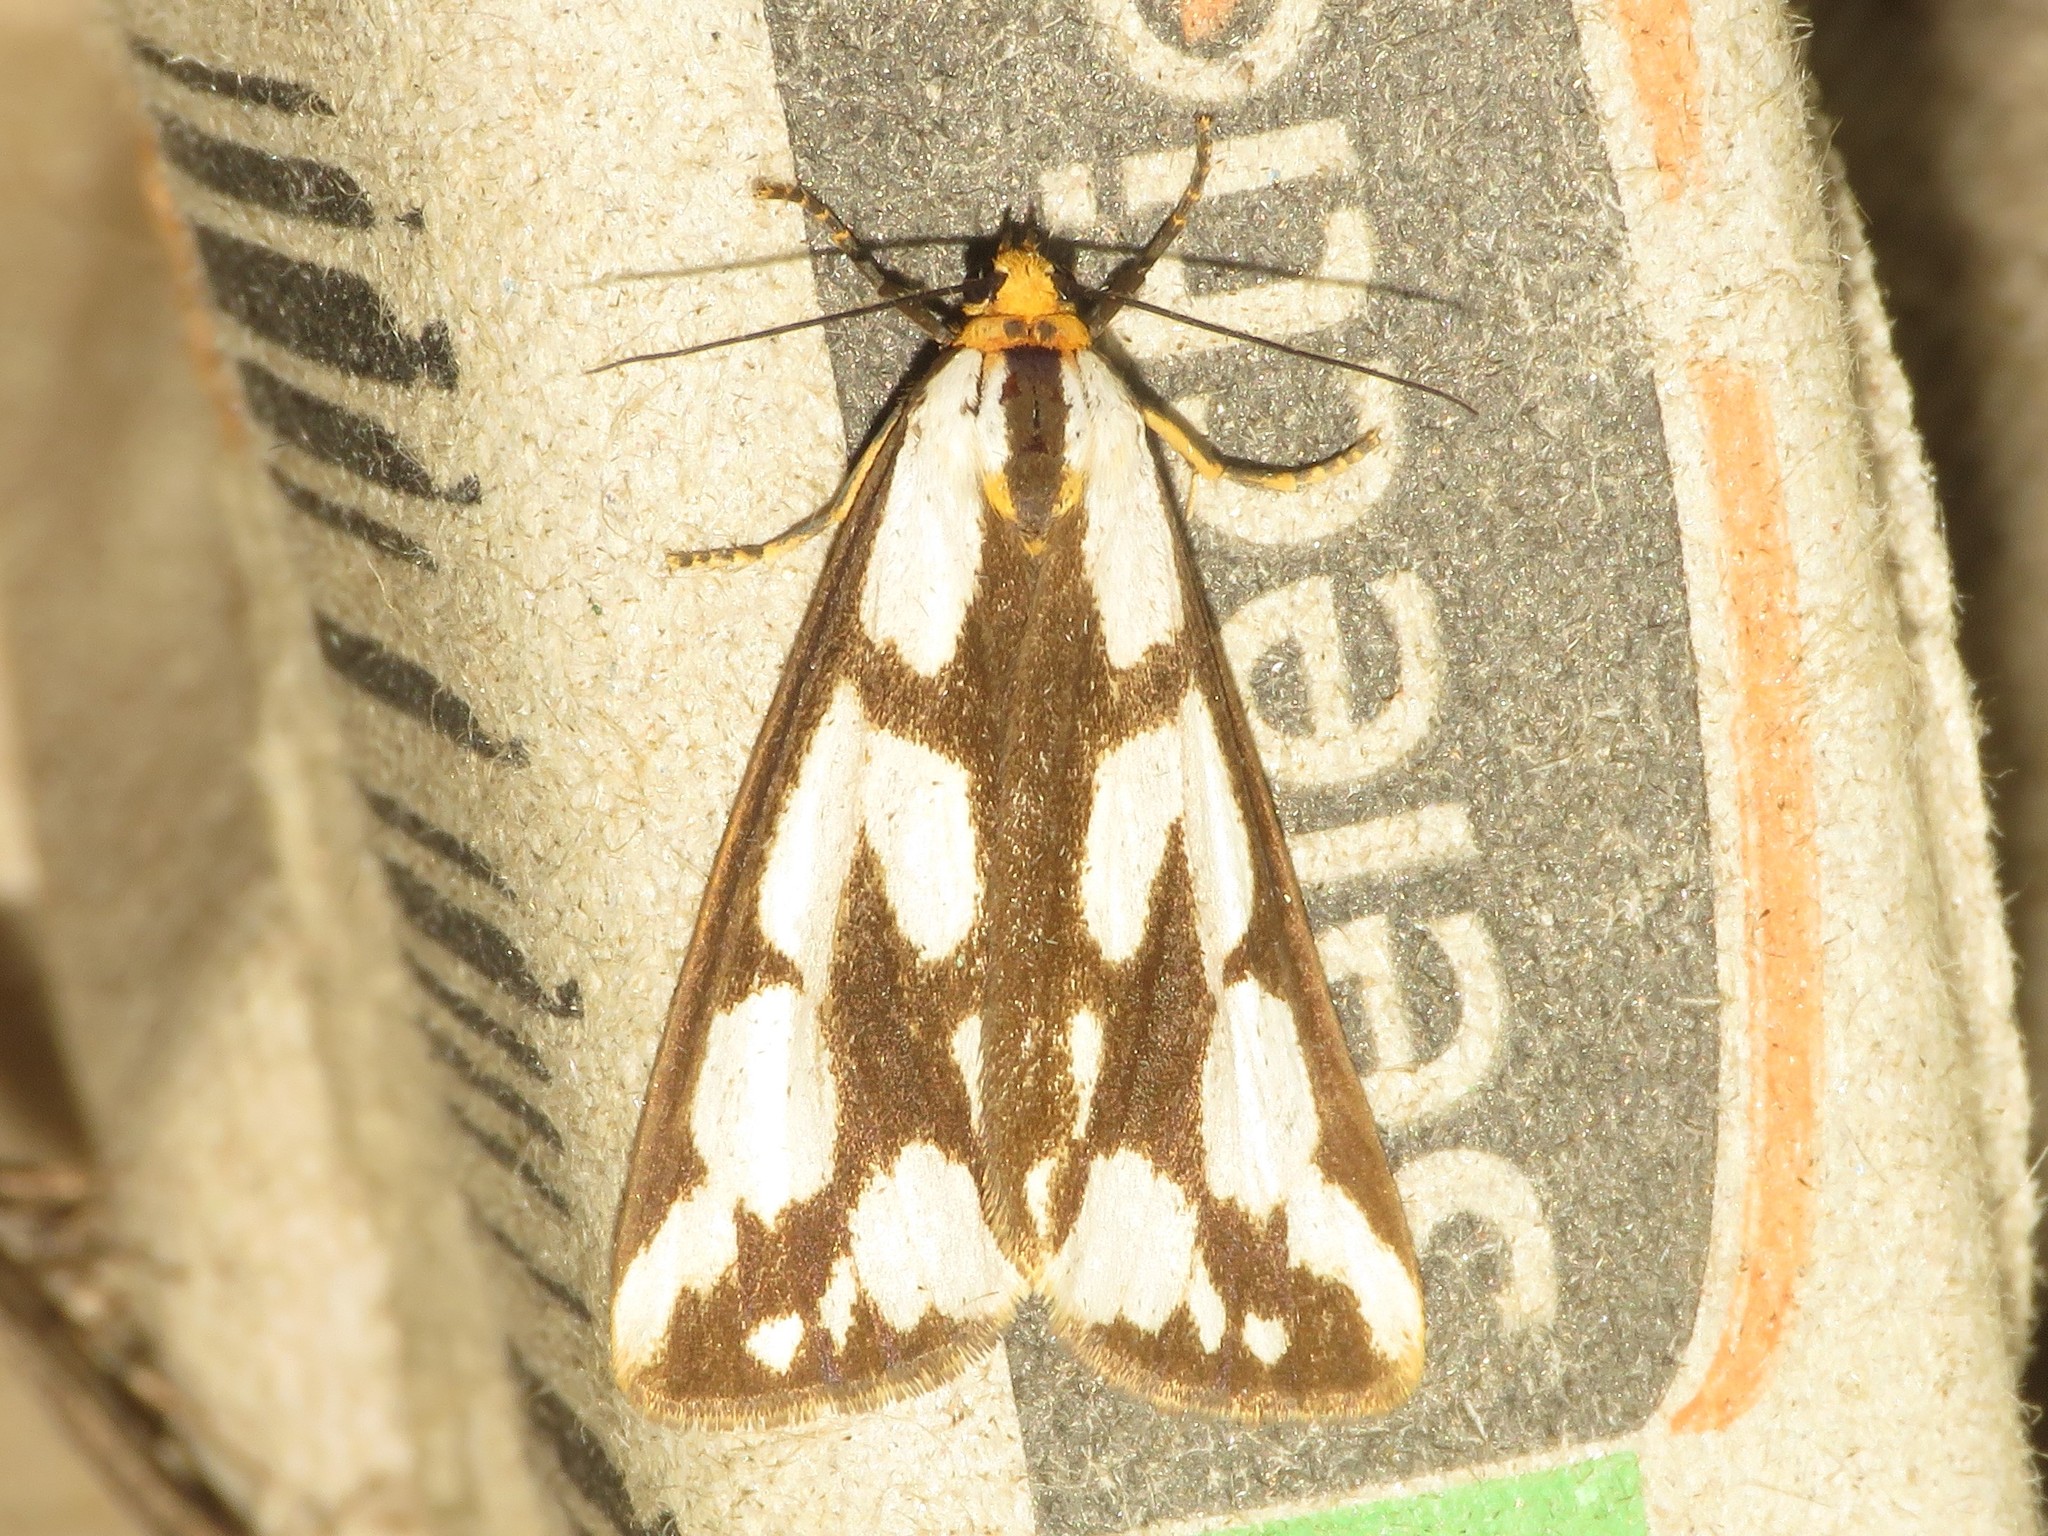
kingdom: Animalia
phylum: Arthropoda
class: Insecta
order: Lepidoptera
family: Erebidae
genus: Haploa
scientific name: Haploa confusa
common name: Confused haploa moth
